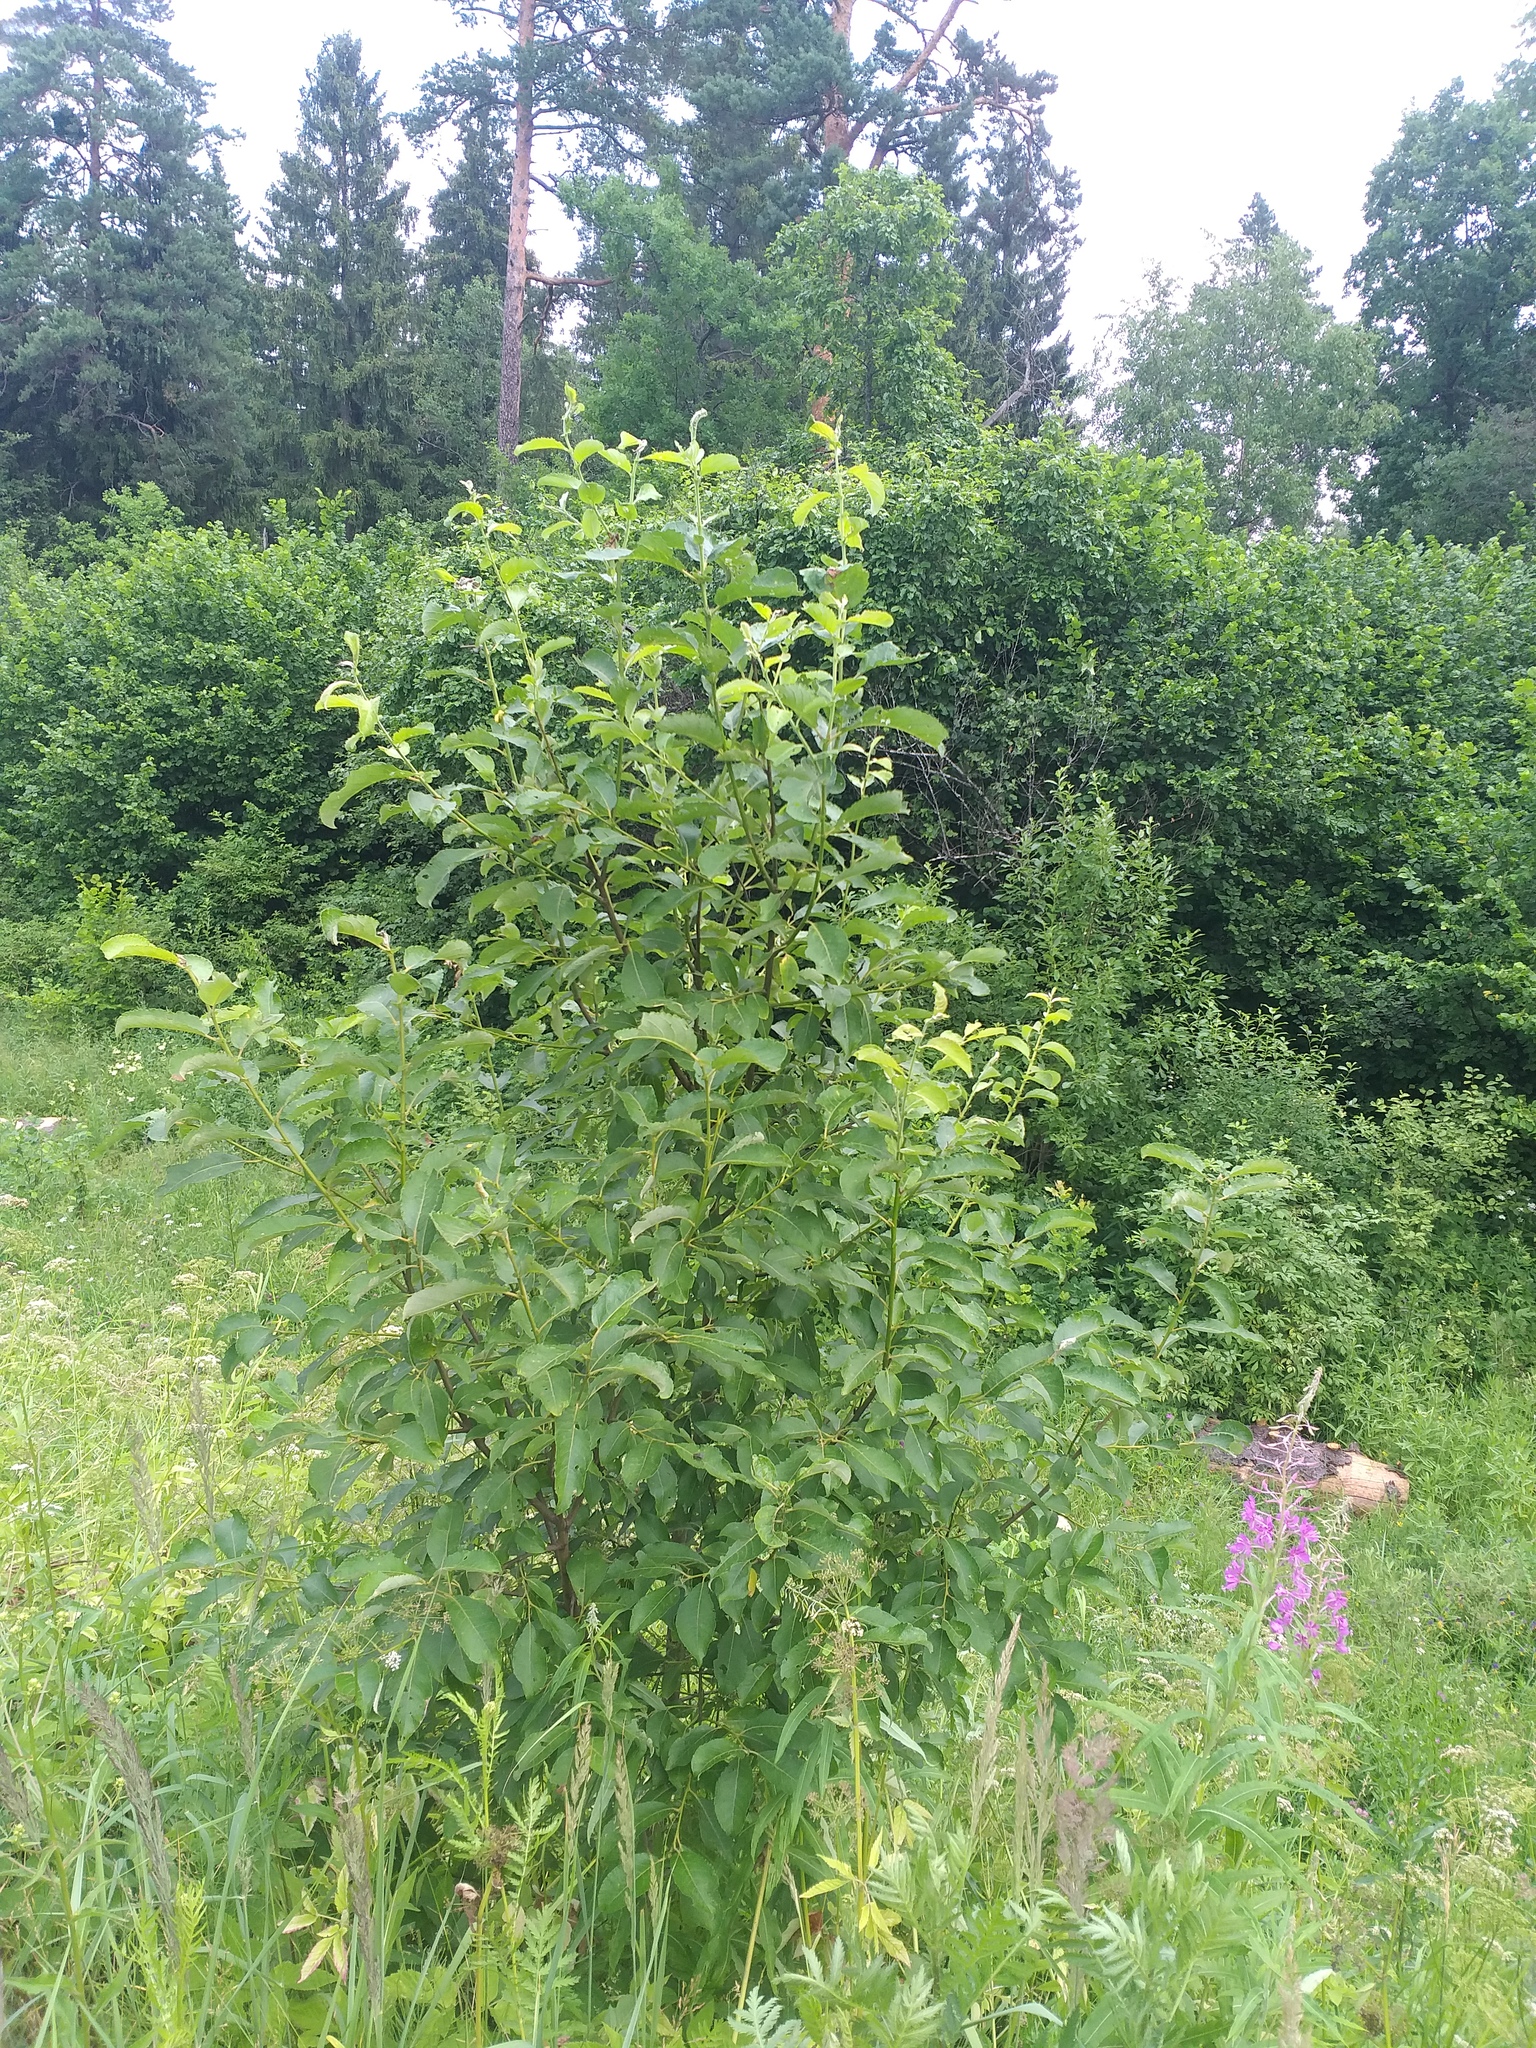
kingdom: Plantae
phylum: Tracheophyta
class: Magnoliopsida
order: Malpighiales
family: Salicaceae
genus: Salix
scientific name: Salix caprea
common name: Goat willow
